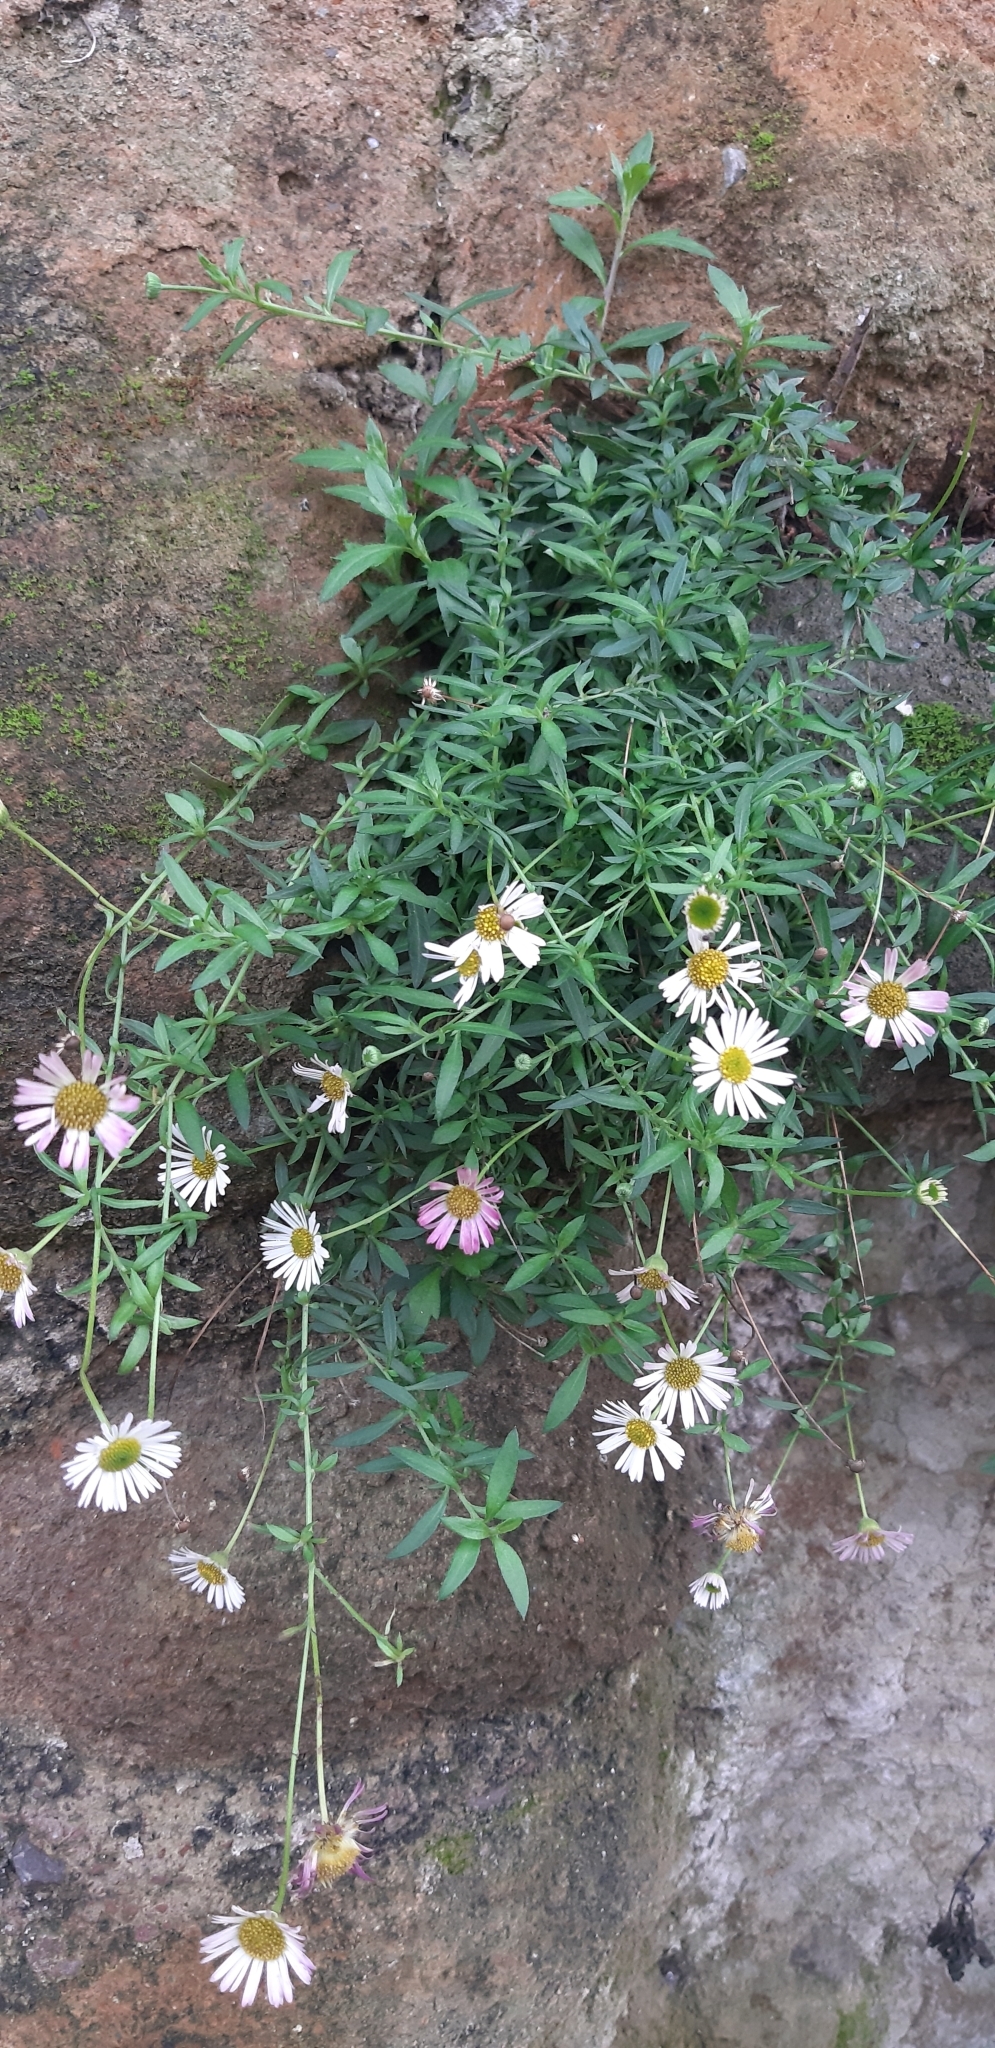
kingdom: Plantae
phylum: Tracheophyta
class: Magnoliopsida
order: Asterales
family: Asteraceae
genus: Erigeron
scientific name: Erigeron karvinskianus
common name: Mexican fleabane
